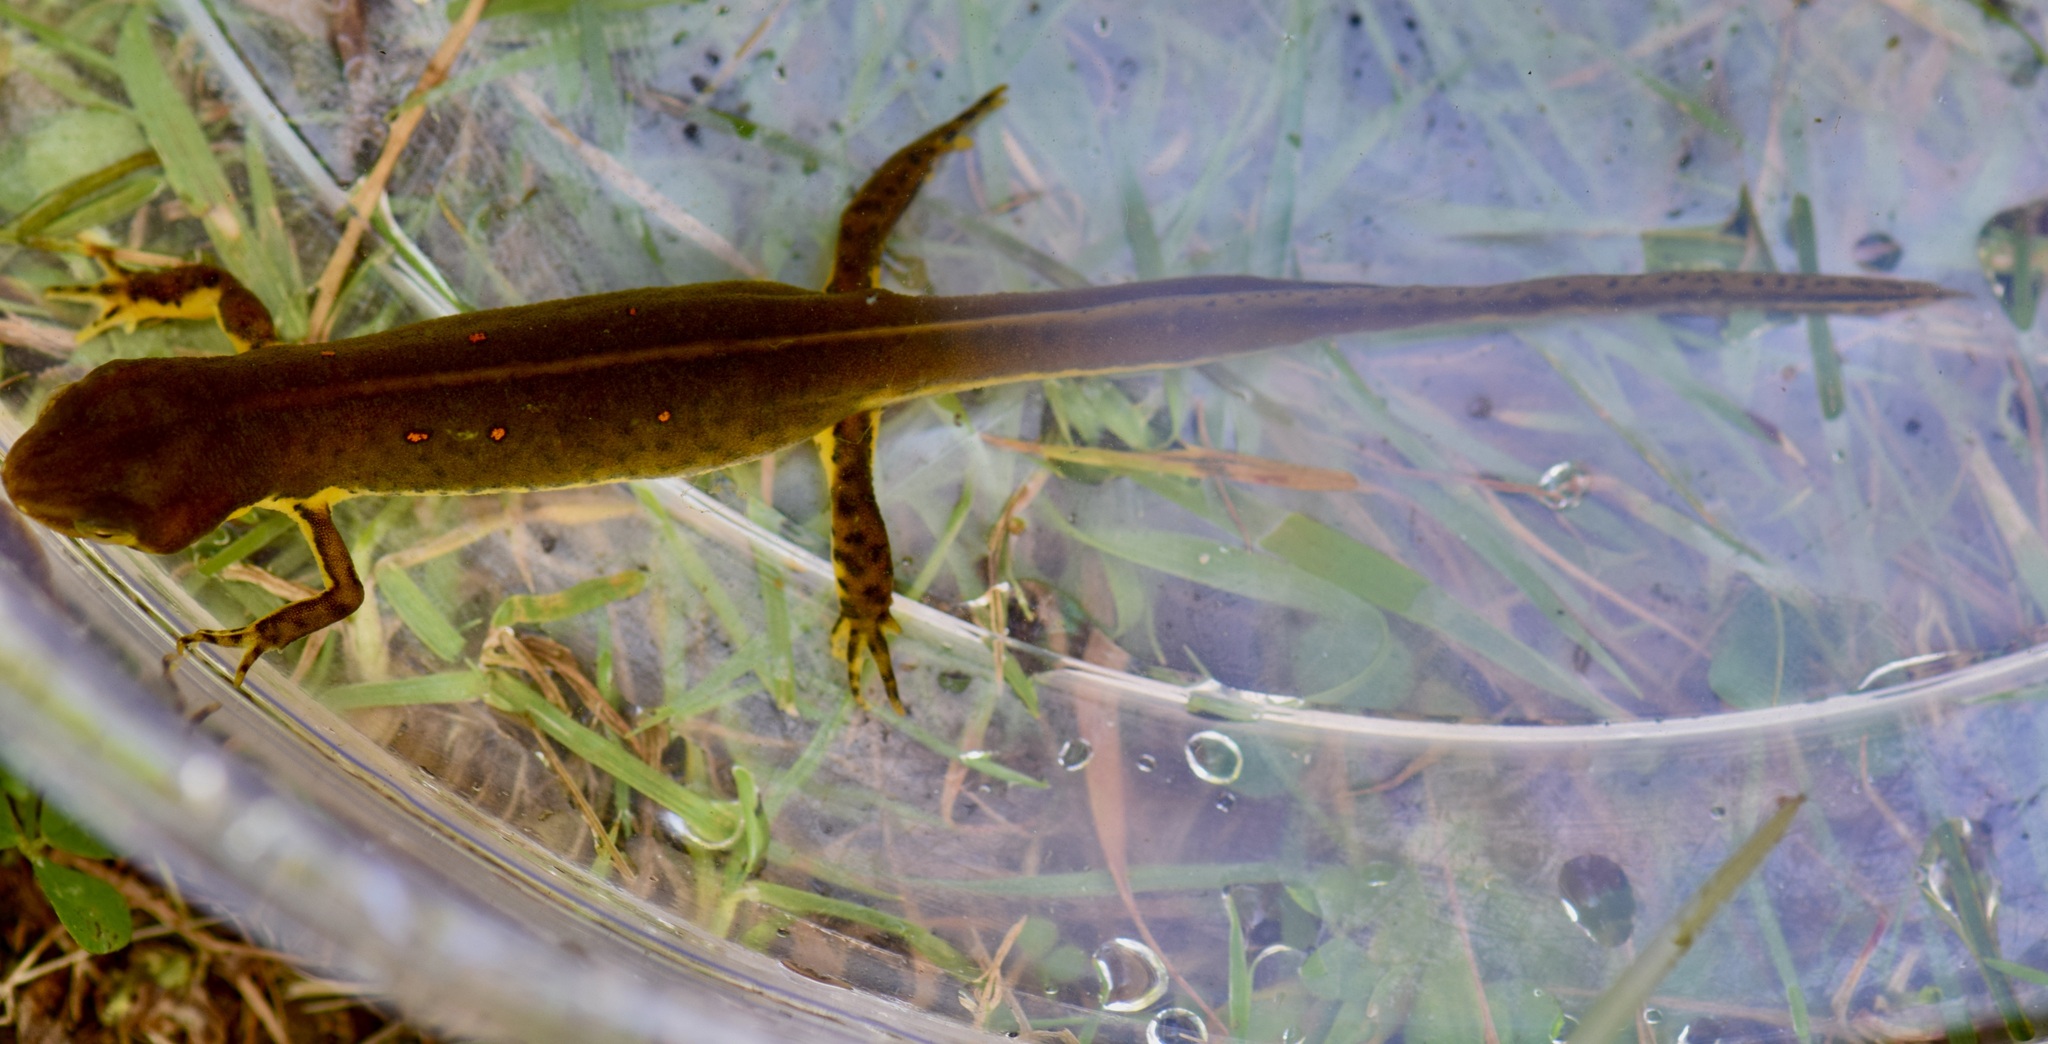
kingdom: Animalia
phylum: Chordata
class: Amphibia
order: Caudata
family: Salamandridae
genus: Notophthalmus
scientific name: Notophthalmus viridescens
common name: Eastern newt
